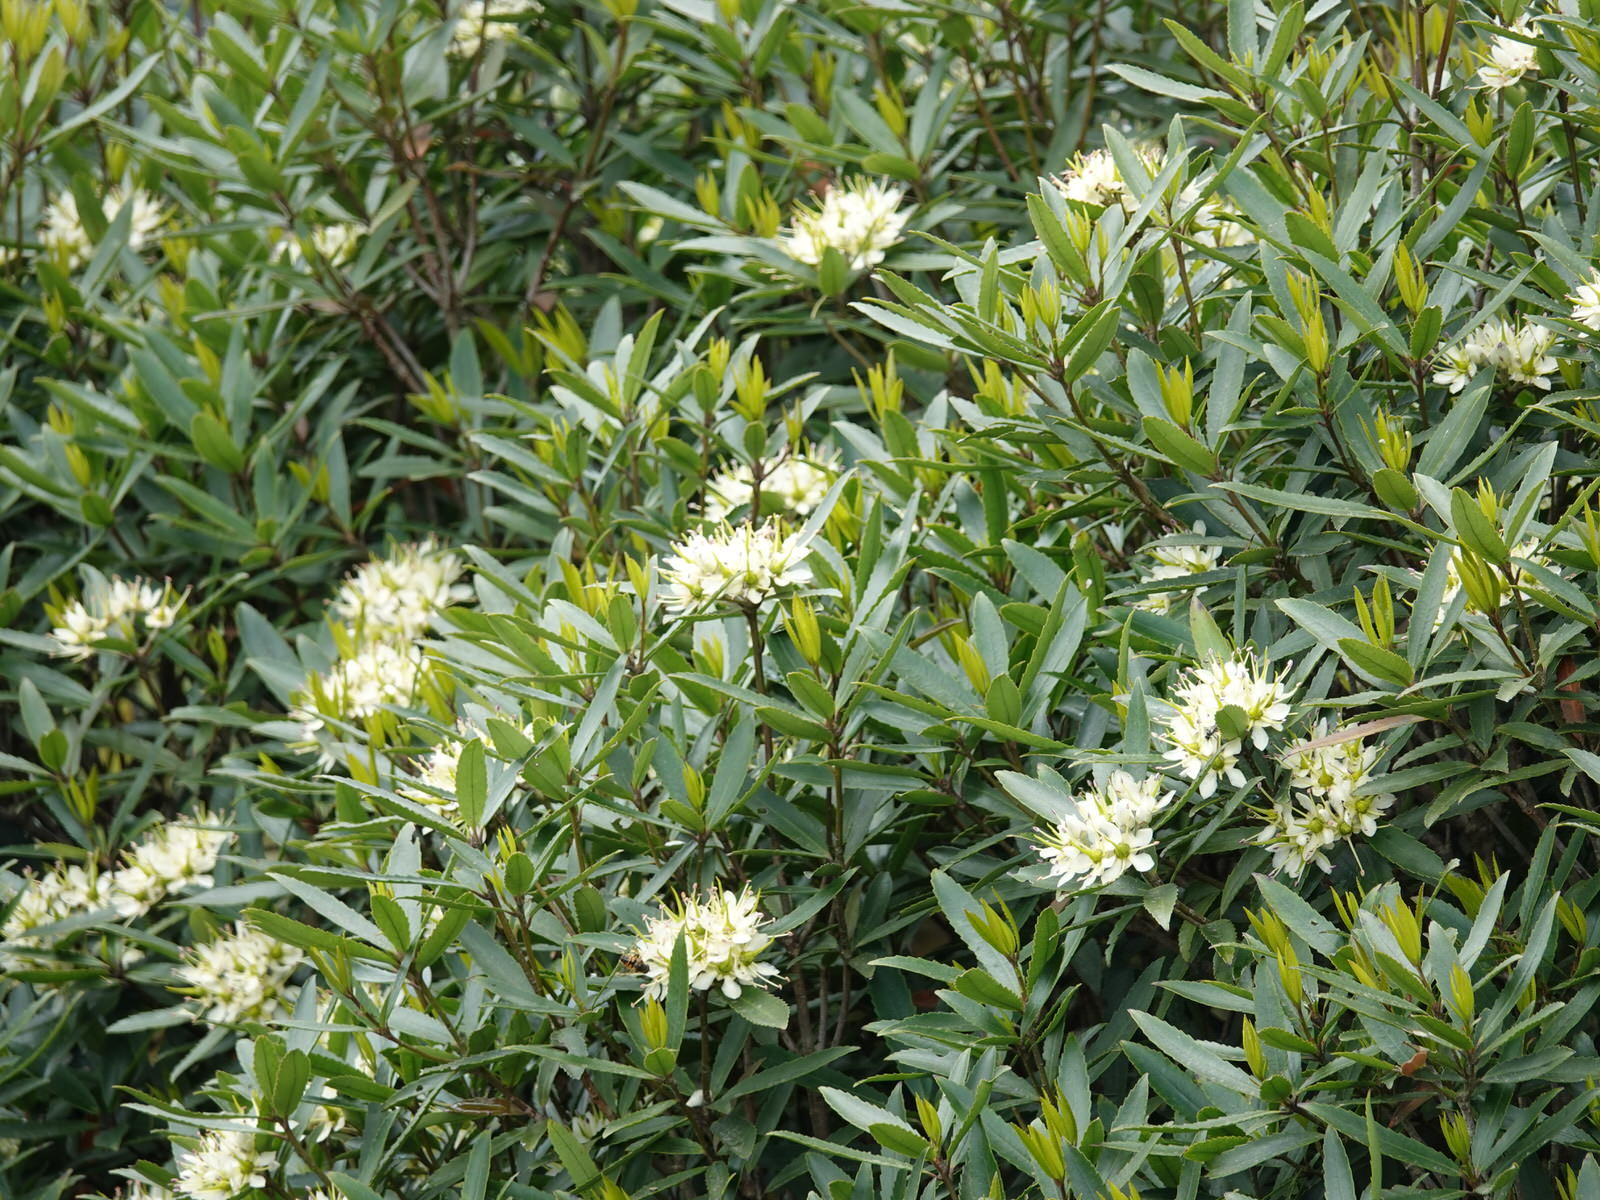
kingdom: Plantae
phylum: Tracheophyta
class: Magnoliopsida
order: Crossosomatales
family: Ixerbaceae
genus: Ixerba
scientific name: Ixerba brexioides
